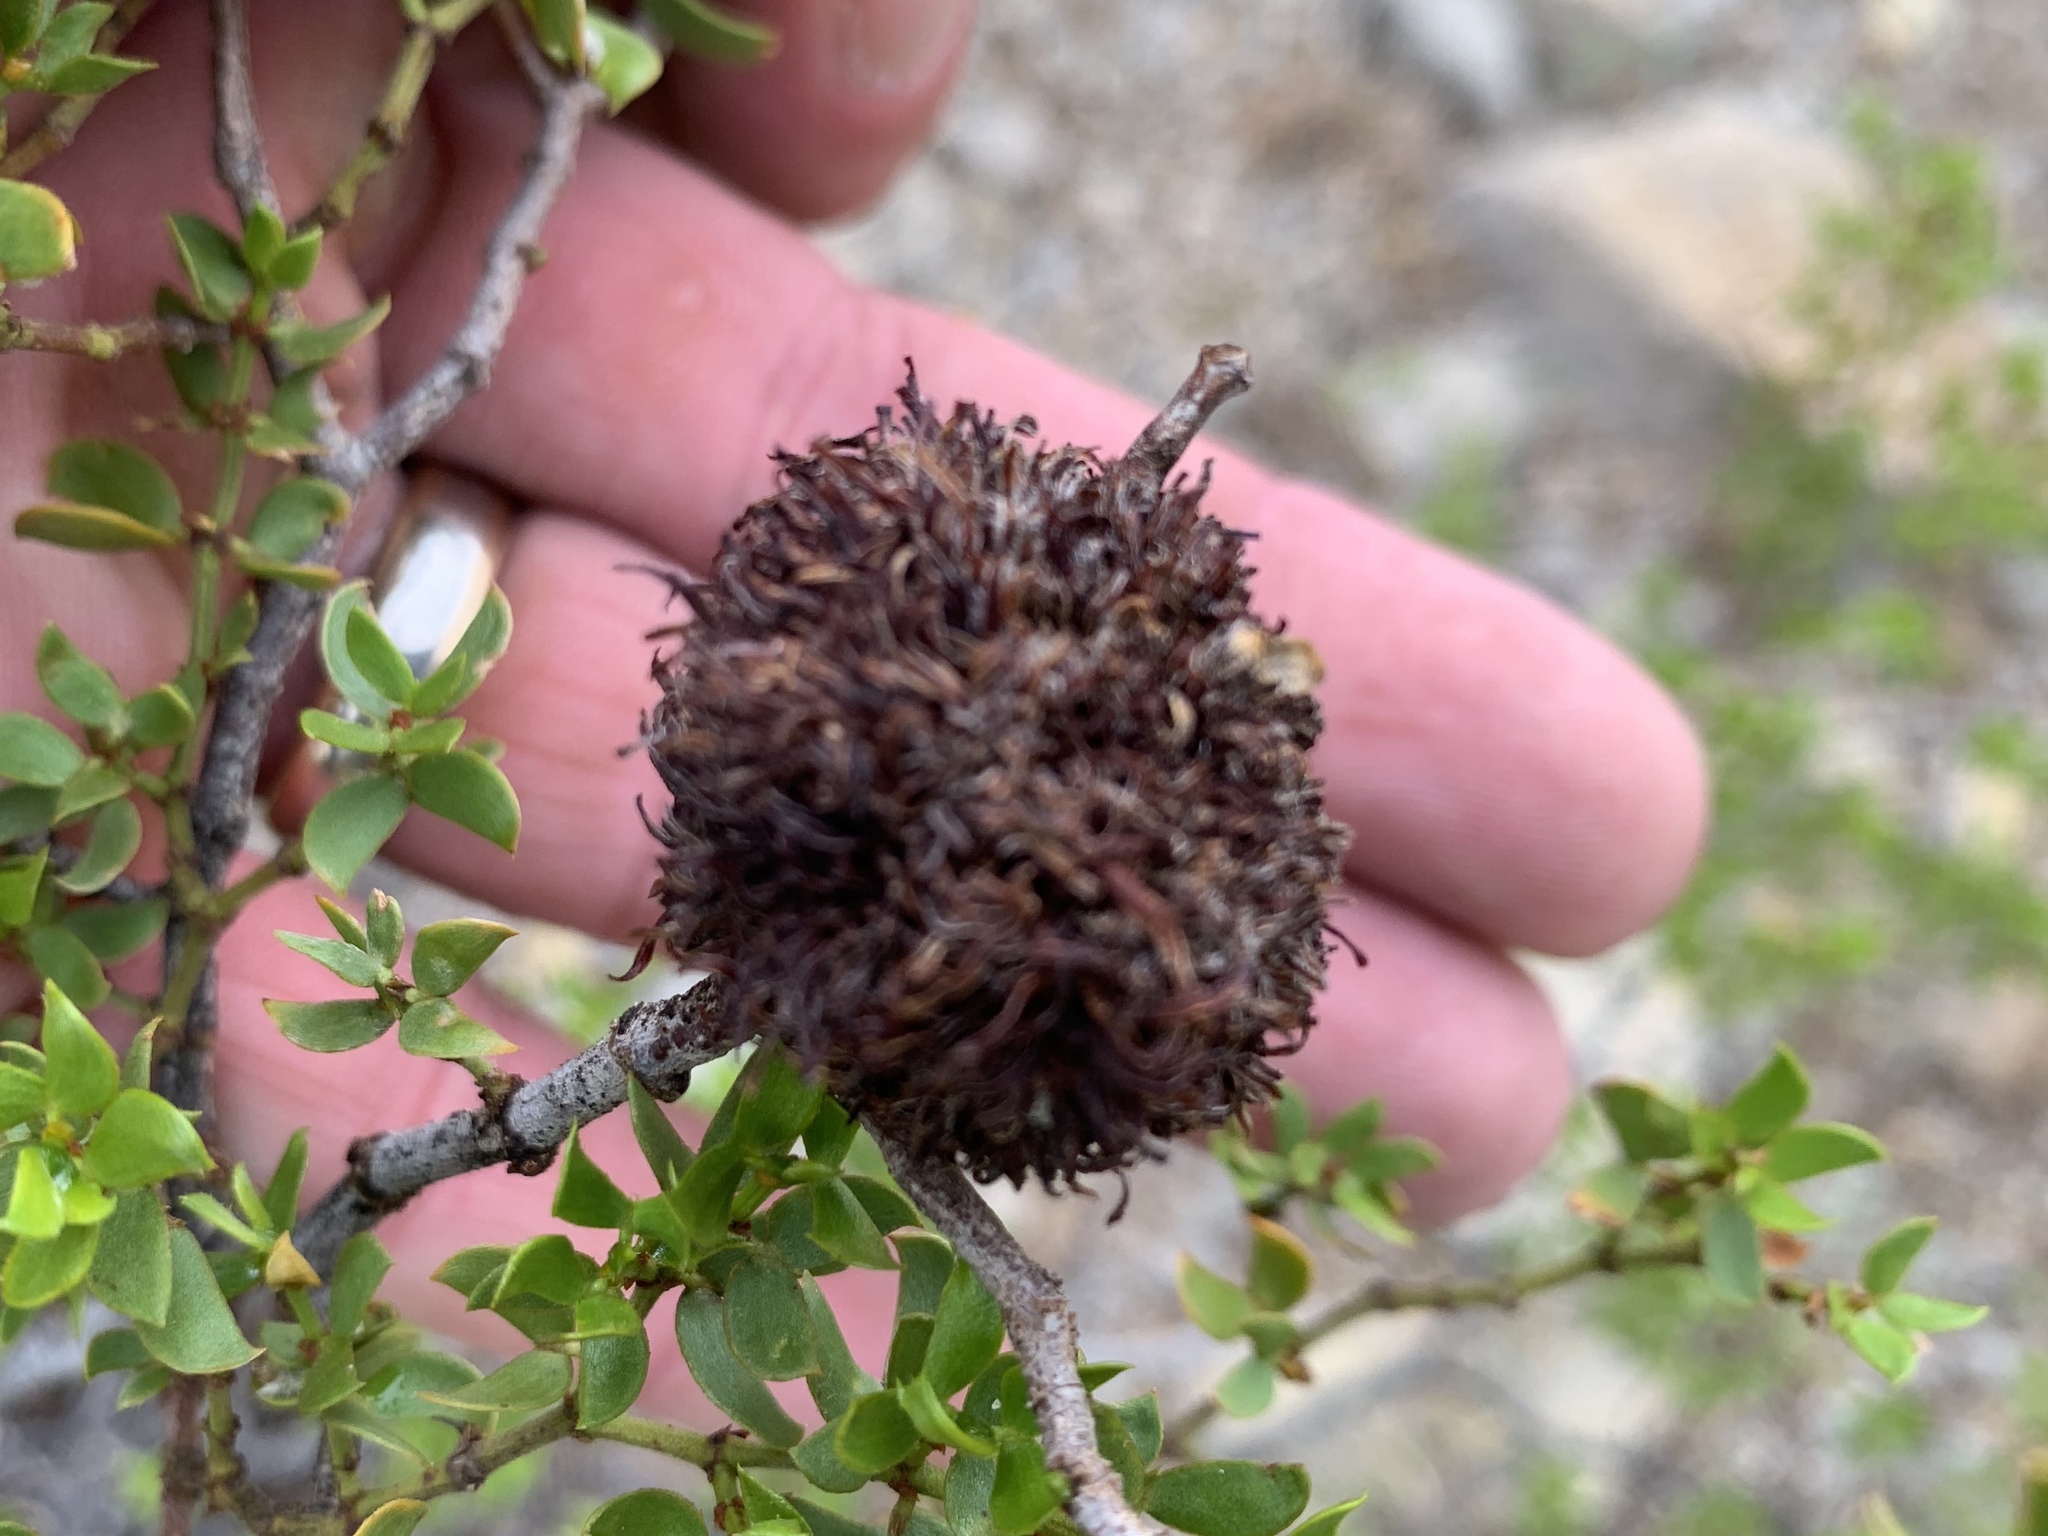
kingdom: Animalia
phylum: Arthropoda
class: Insecta
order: Diptera
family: Cecidomyiidae
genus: Asphondylia
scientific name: Asphondylia auripila
